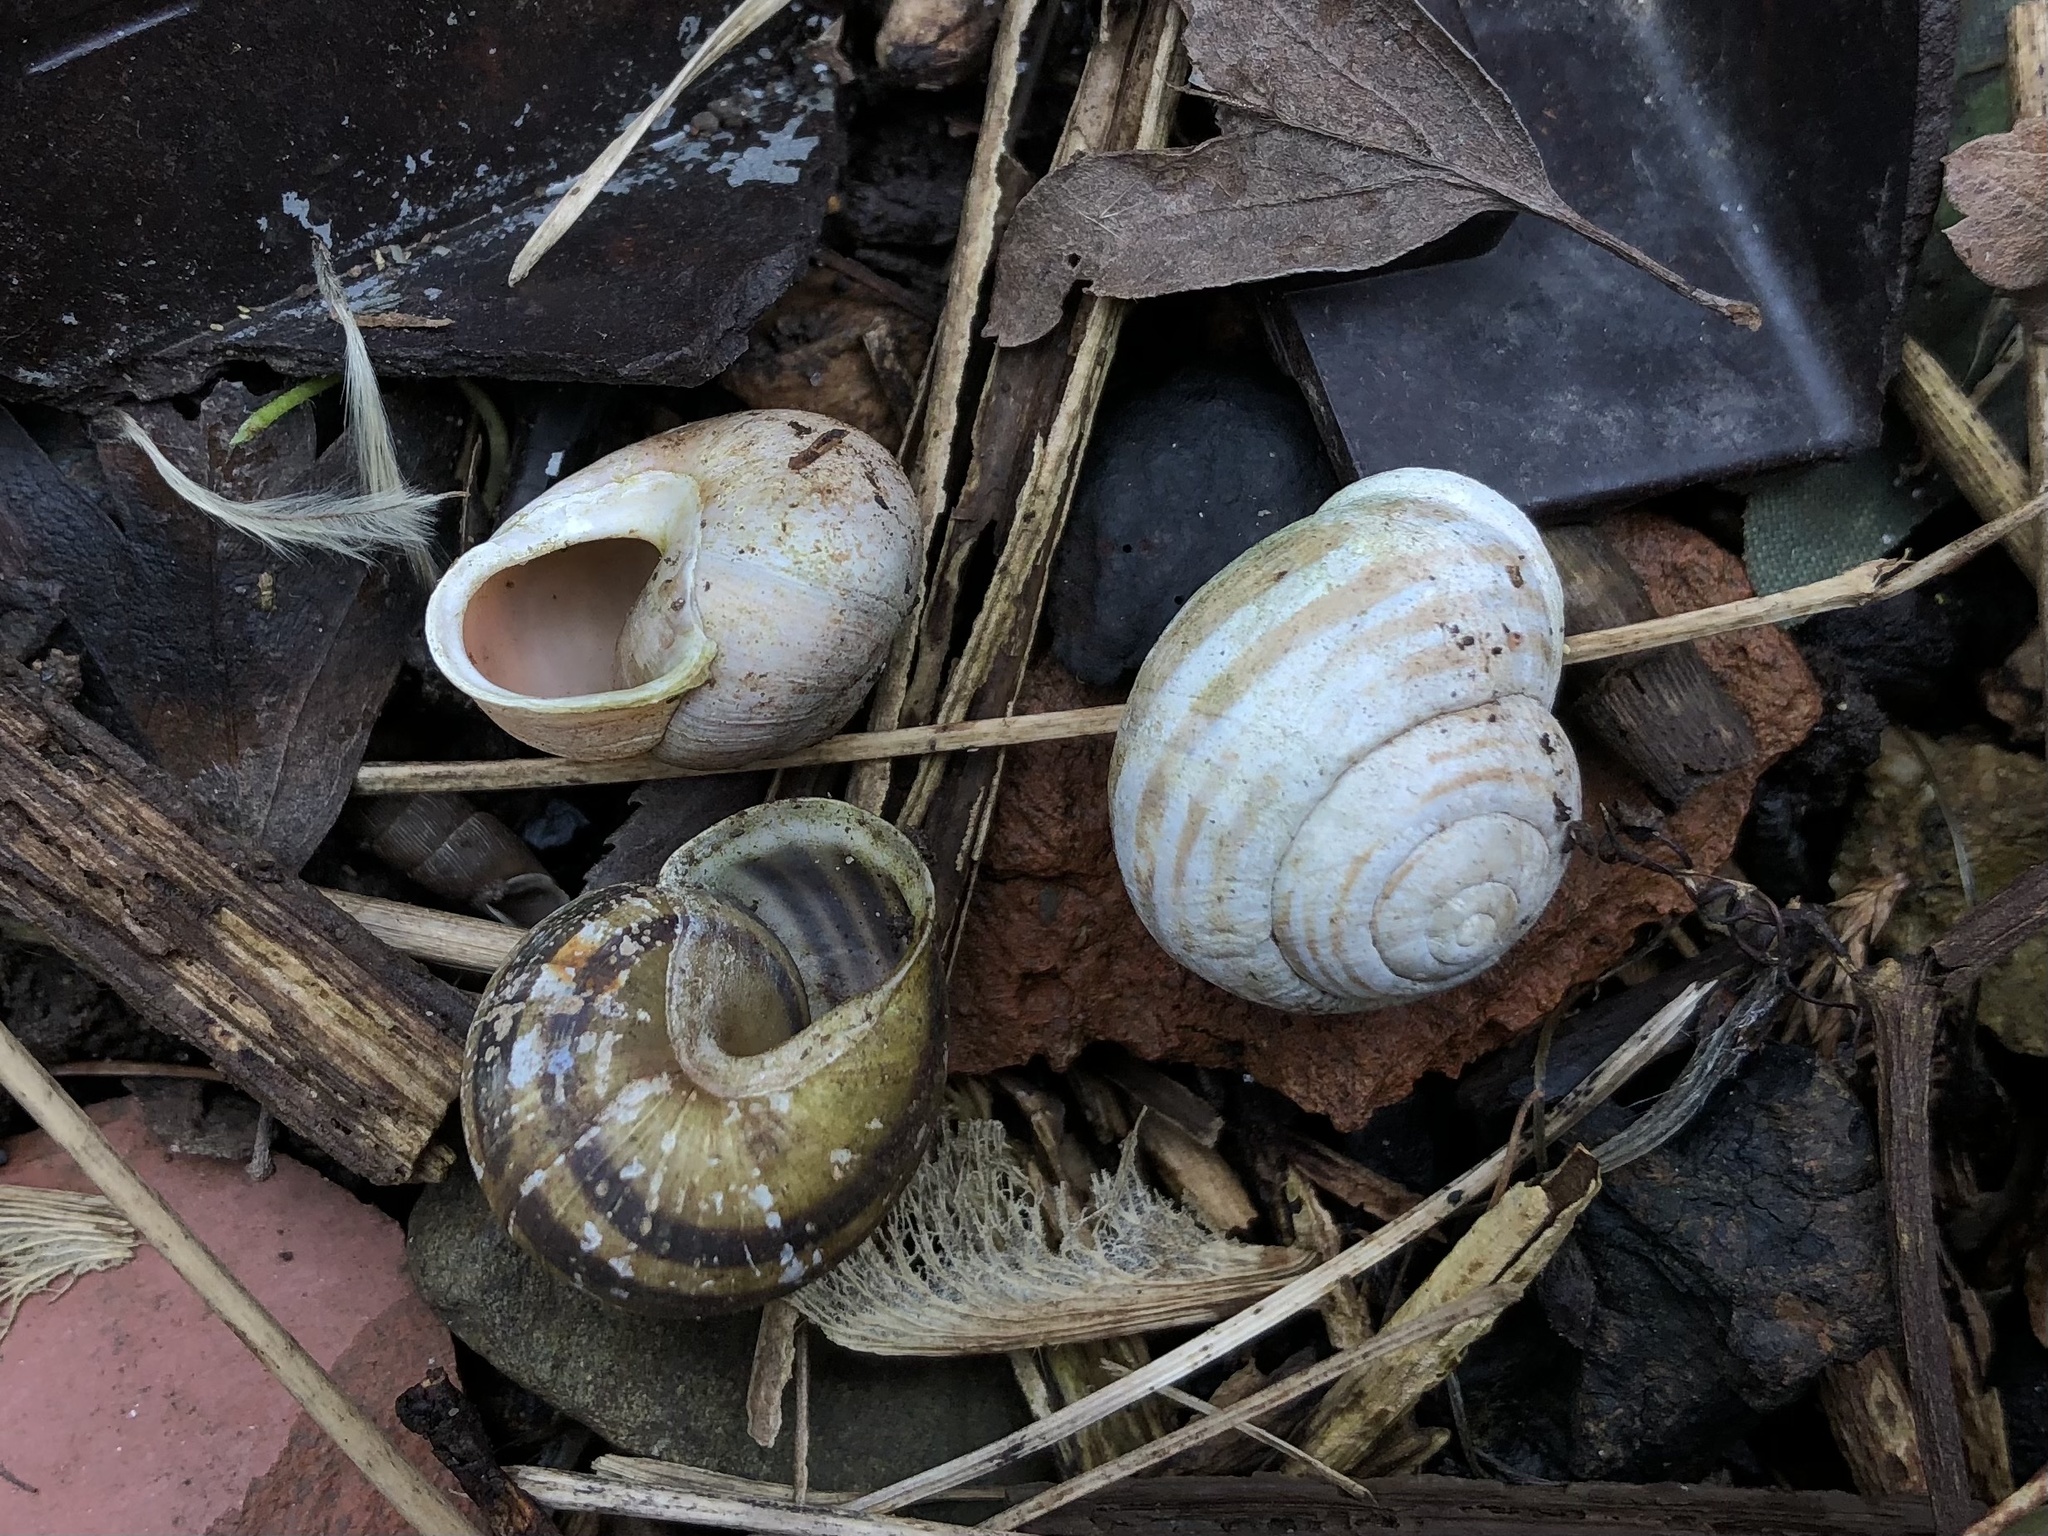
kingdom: Animalia
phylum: Mollusca
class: Gastropoda
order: Stylommatophora
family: Helicidae
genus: Cepaea
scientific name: Cepaea hortensis
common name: White-lip gardensnail
